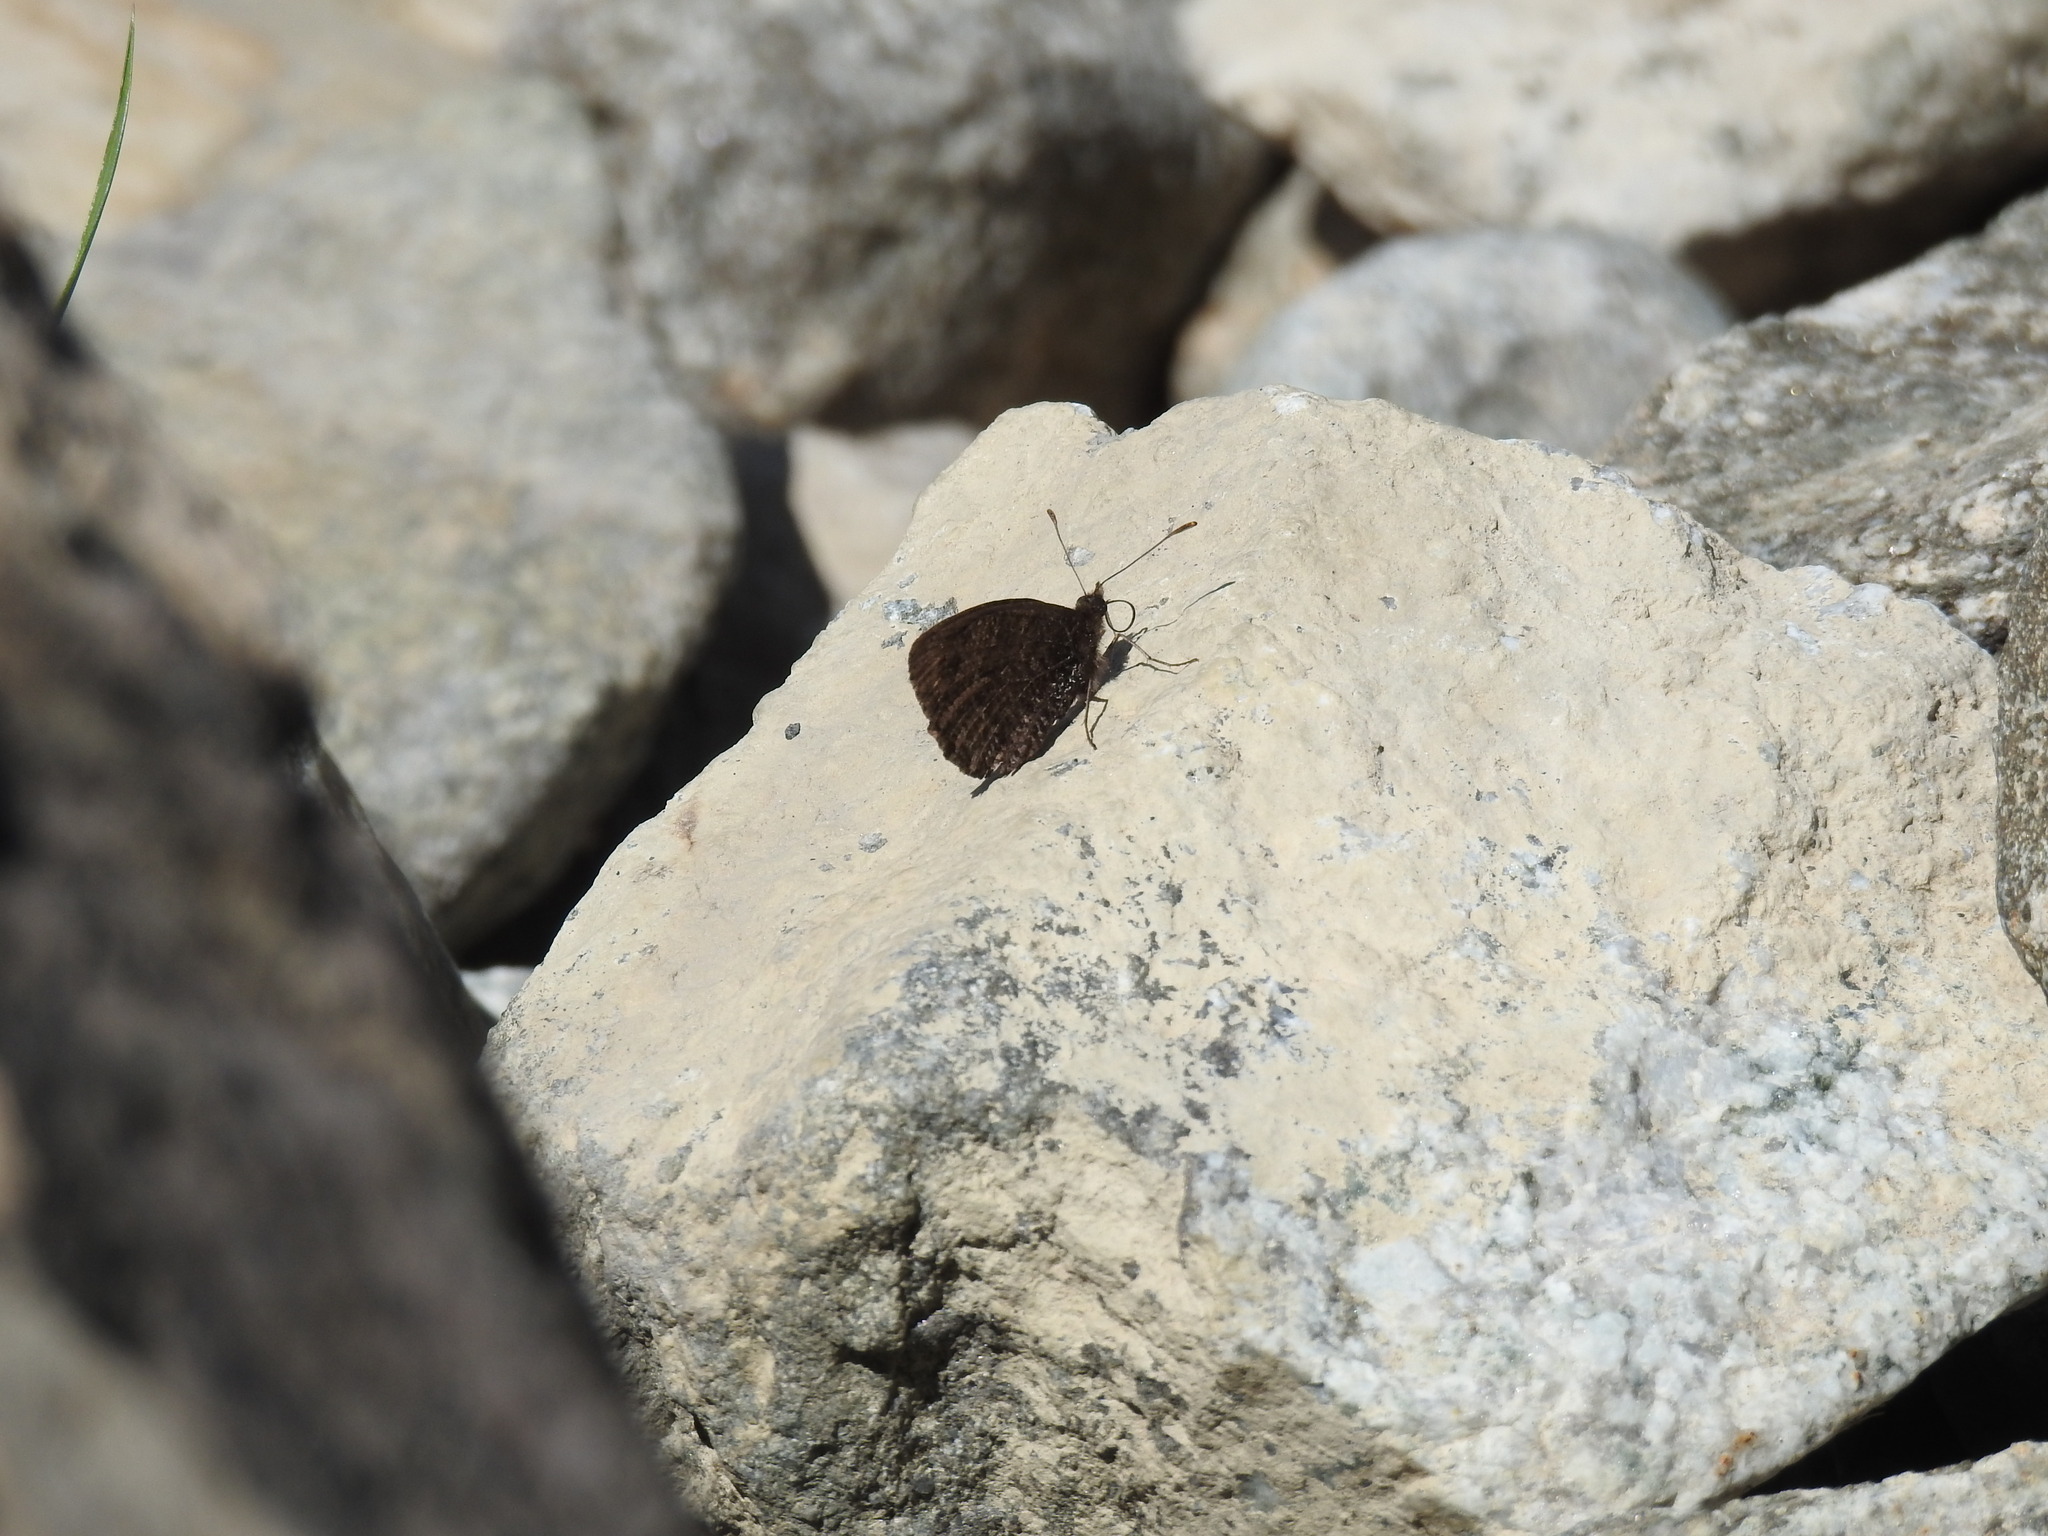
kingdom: Animalia
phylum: Arthropoda
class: Insecta
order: Lepidoptera
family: Nymphalidae
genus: Erebia
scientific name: Erebia montanus
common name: Marbled ringlet
